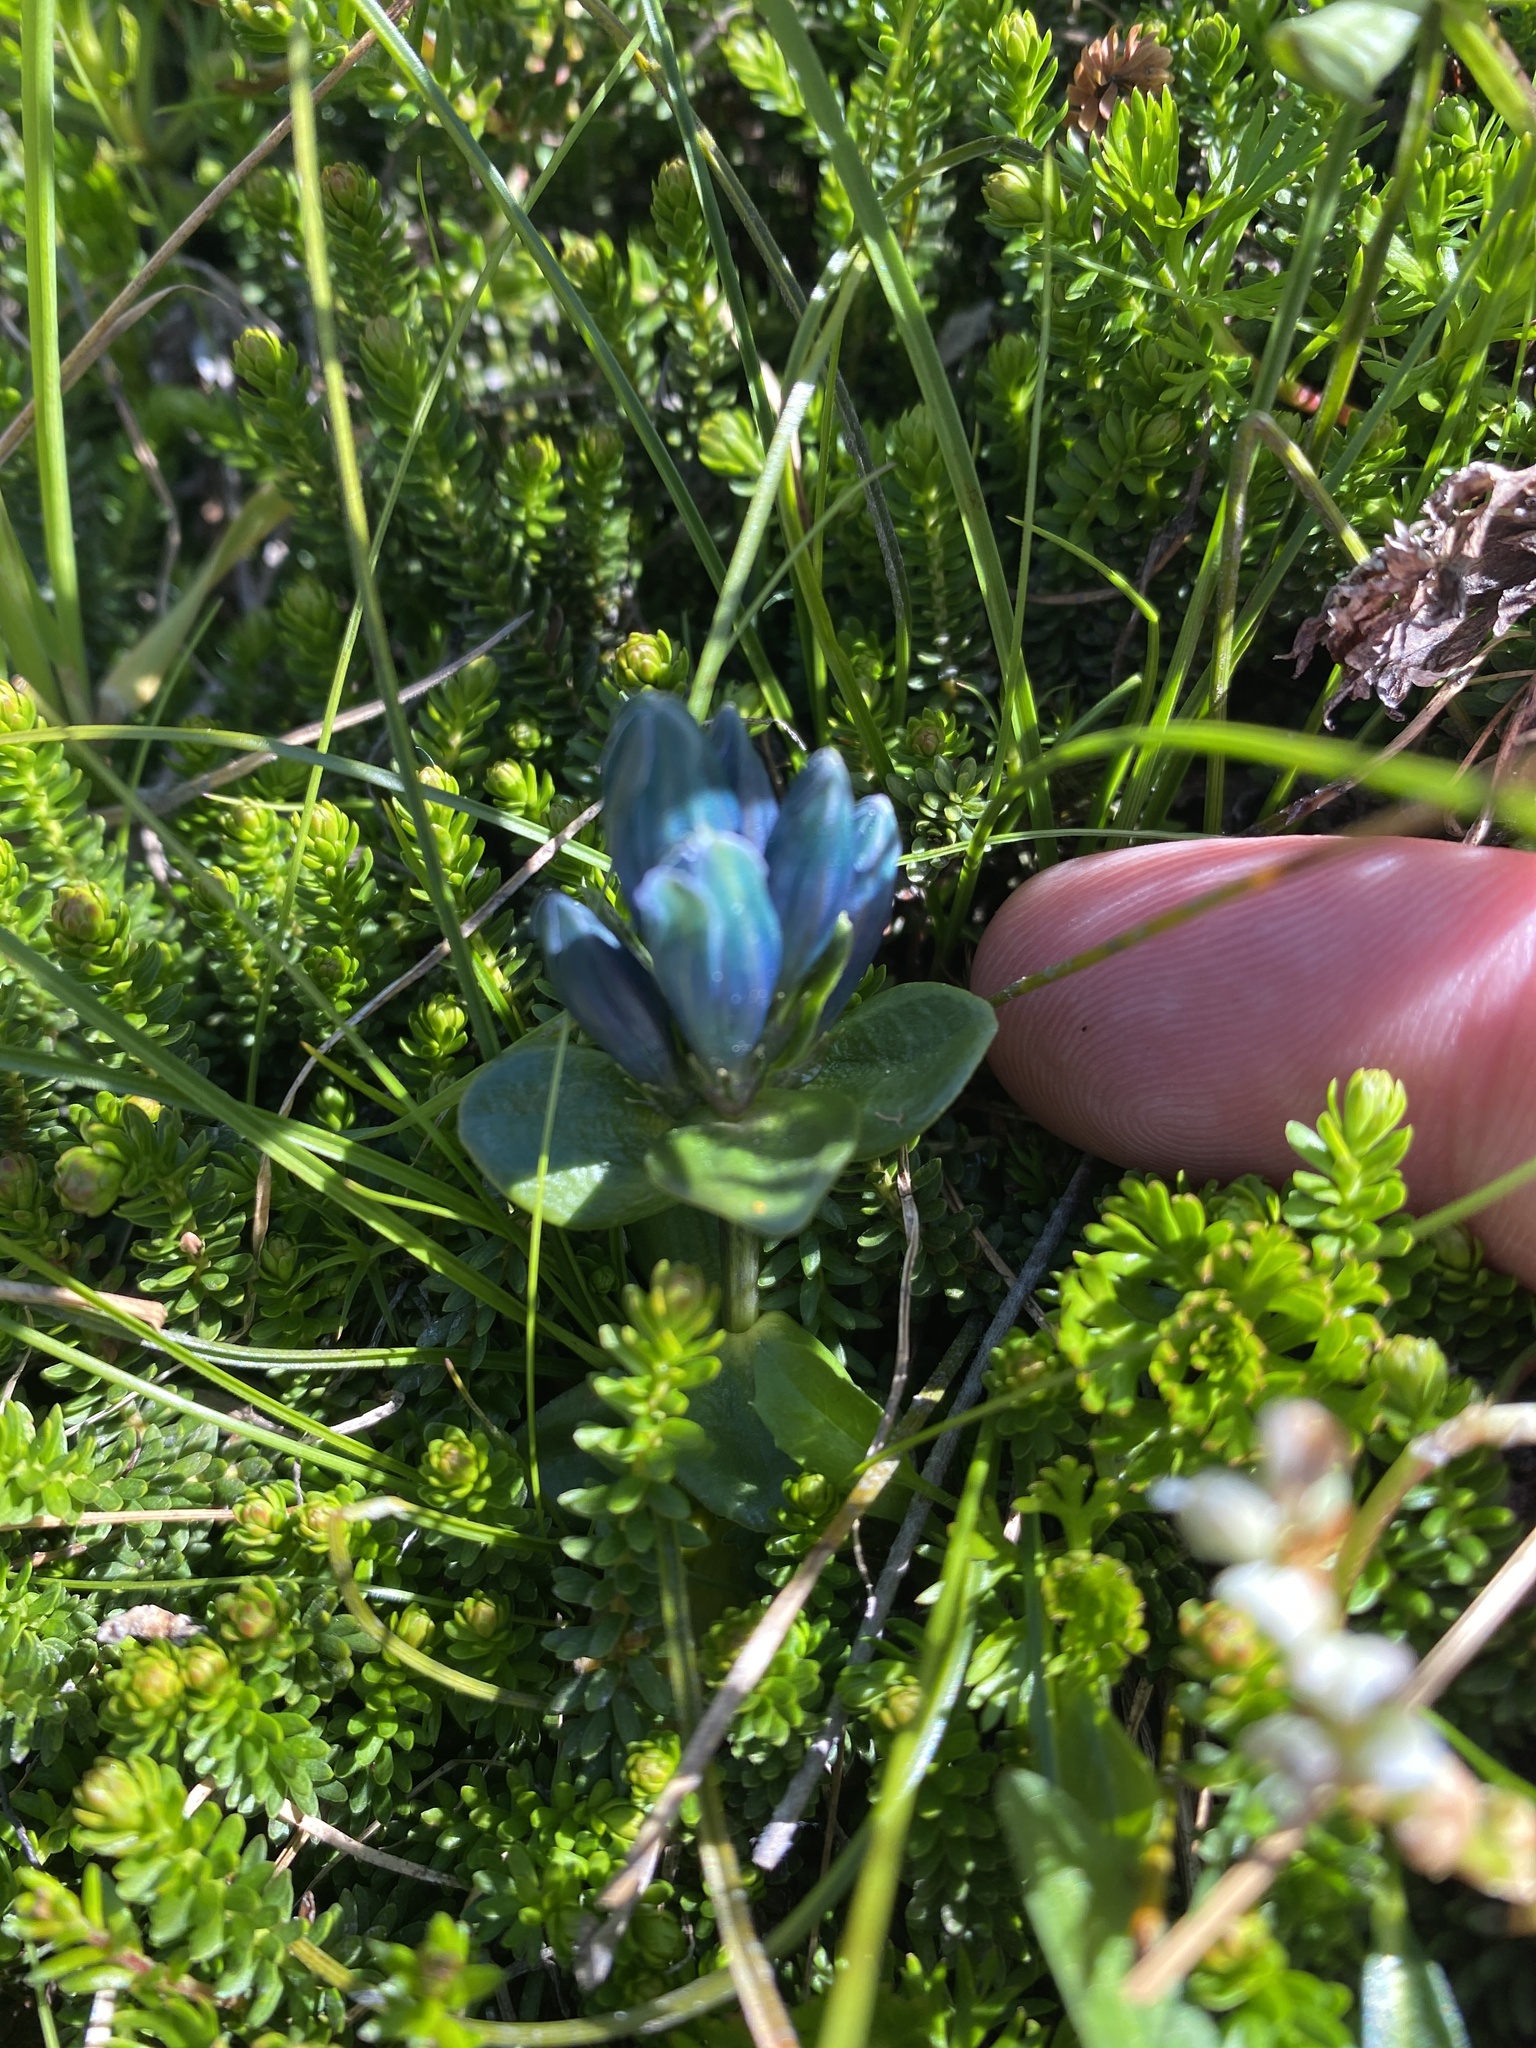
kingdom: Plantae
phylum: Tracheophyta
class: Magnoliopsida
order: Gentianales
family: Gentianaceae
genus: Gentiana
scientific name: Gentiana glauca
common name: Alpine gentian
